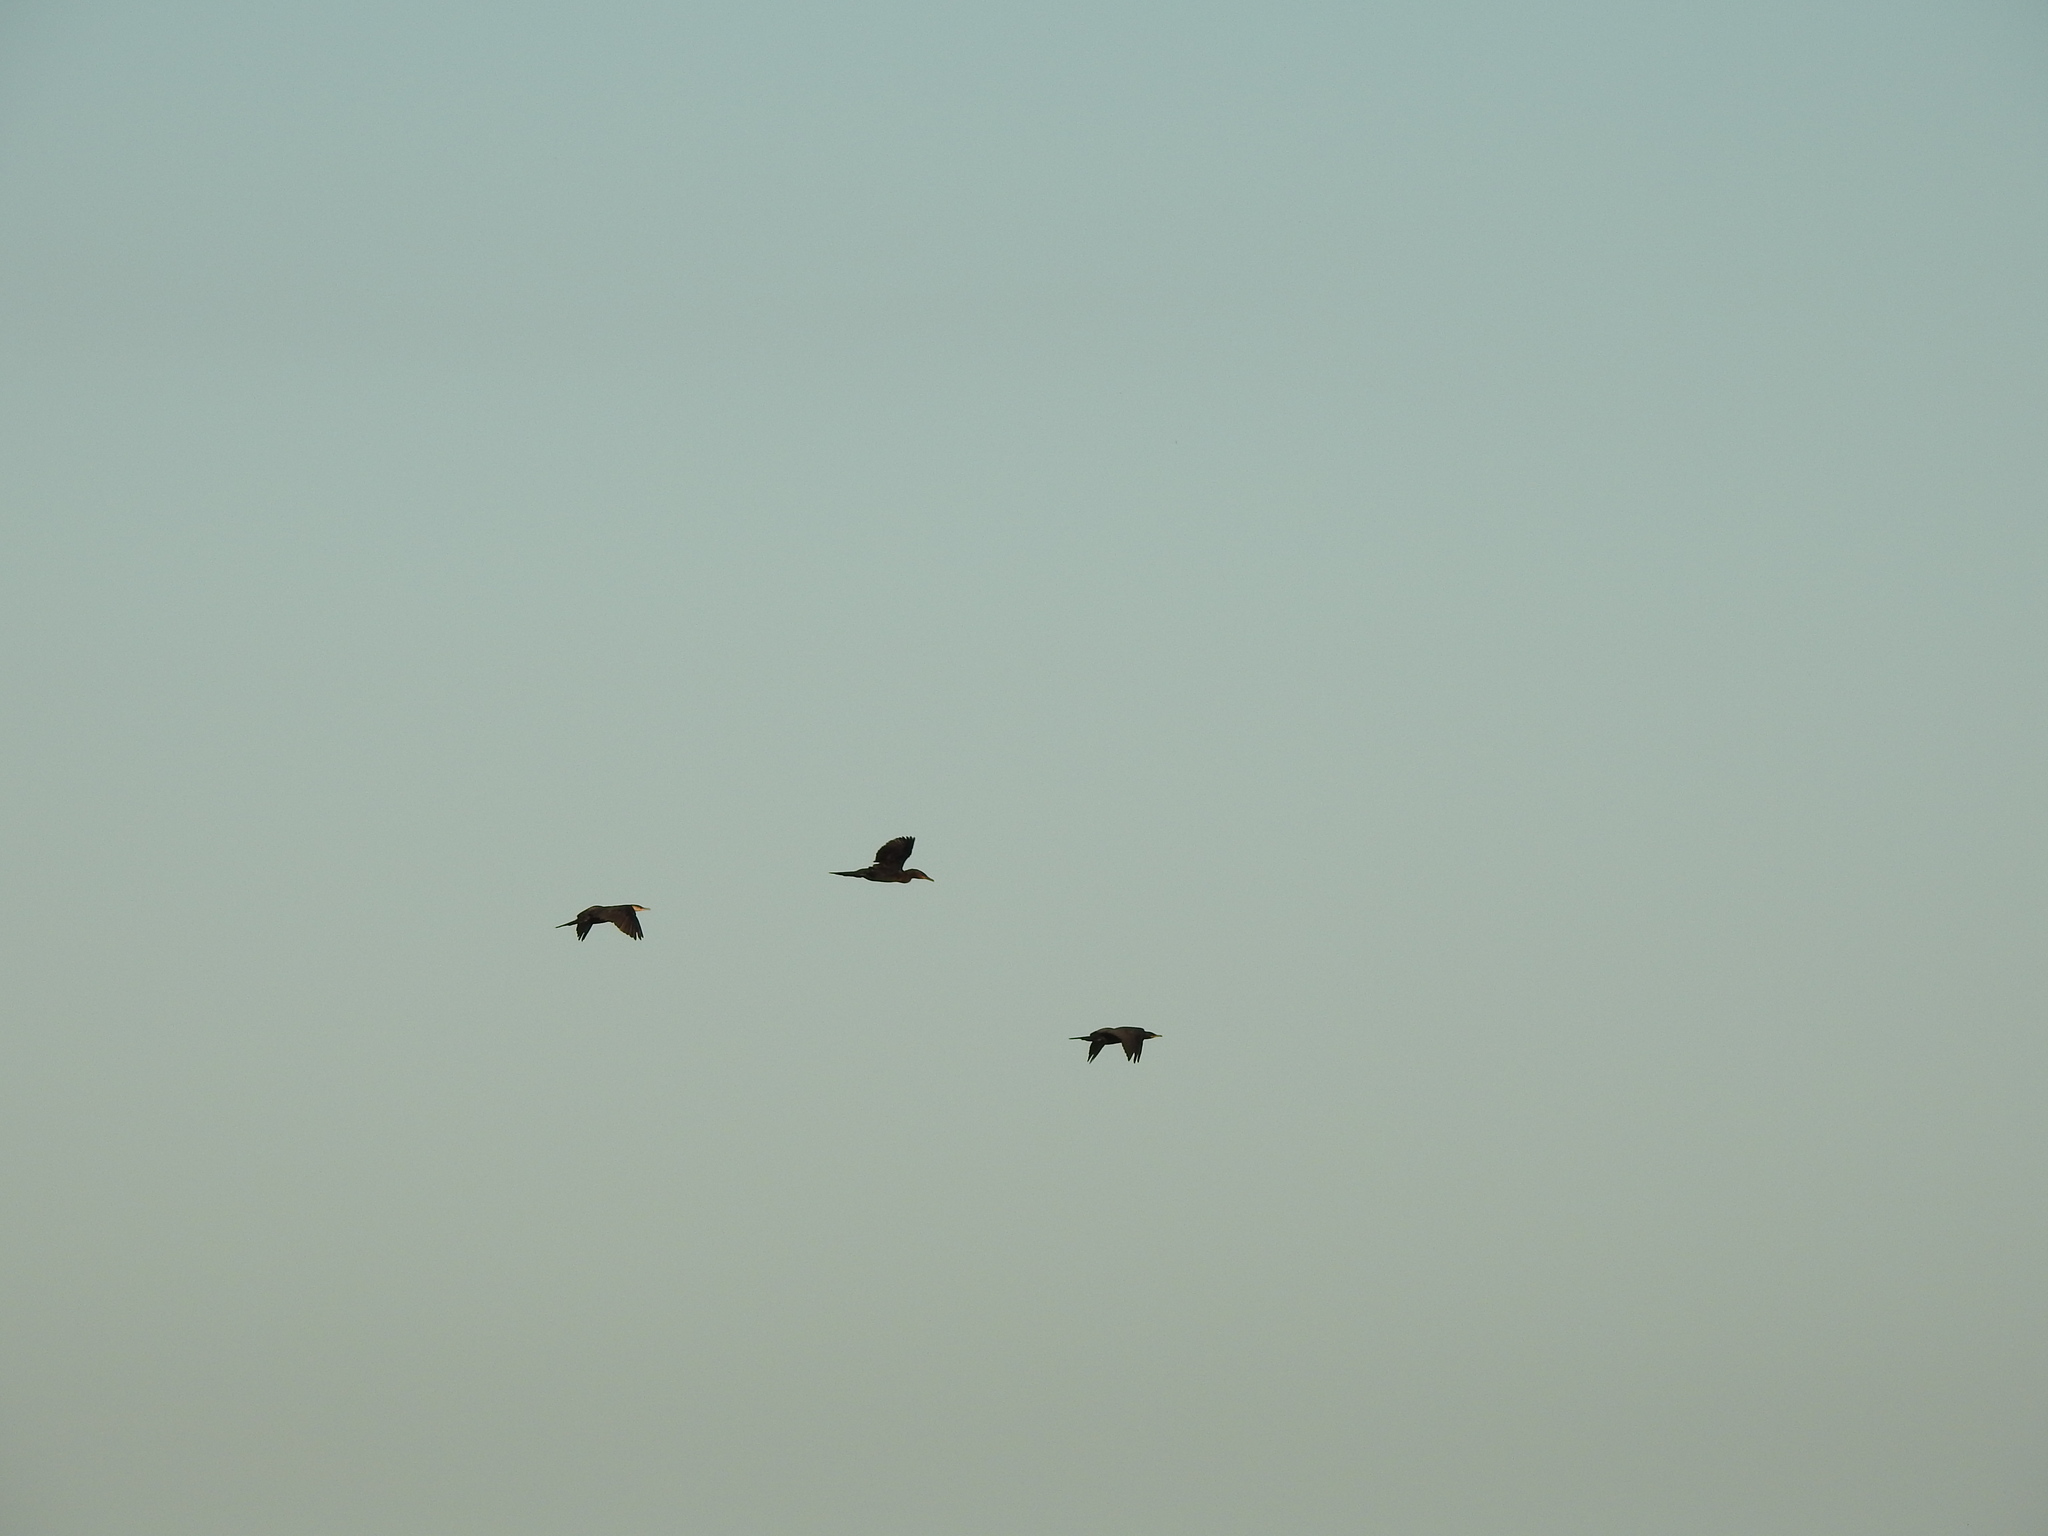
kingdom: Animalia
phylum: Chordata
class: Aves
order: Suliformes
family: Phalacrocoracidae
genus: Phalacrocorax
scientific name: Phalacrocorax brasilianus
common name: Neotropic cormorant
